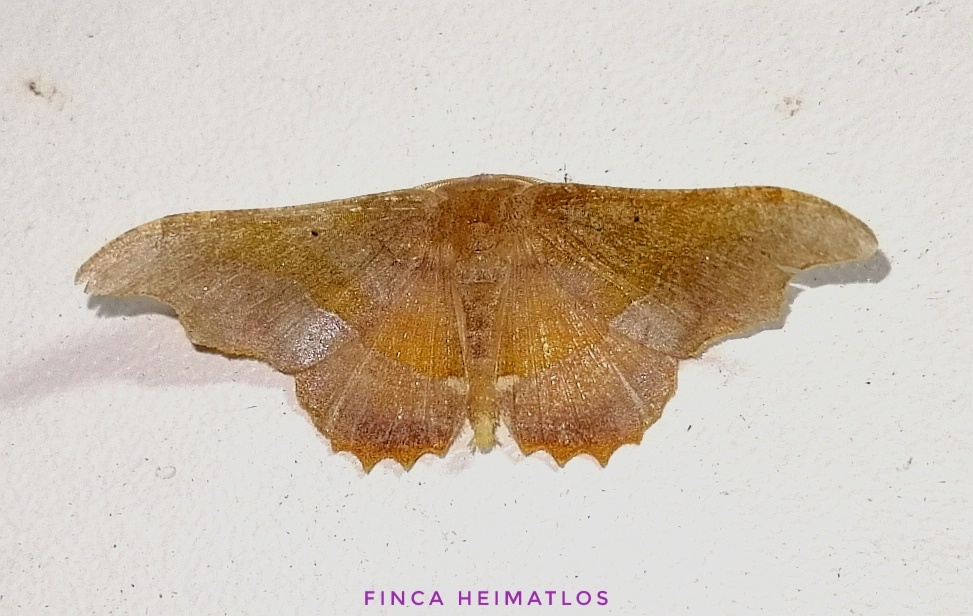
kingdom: Animalia
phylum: Arthropoda
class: Insecta
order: Lepidoptera
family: Geometridae
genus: Patalene
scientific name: Patalene aenetusaria
